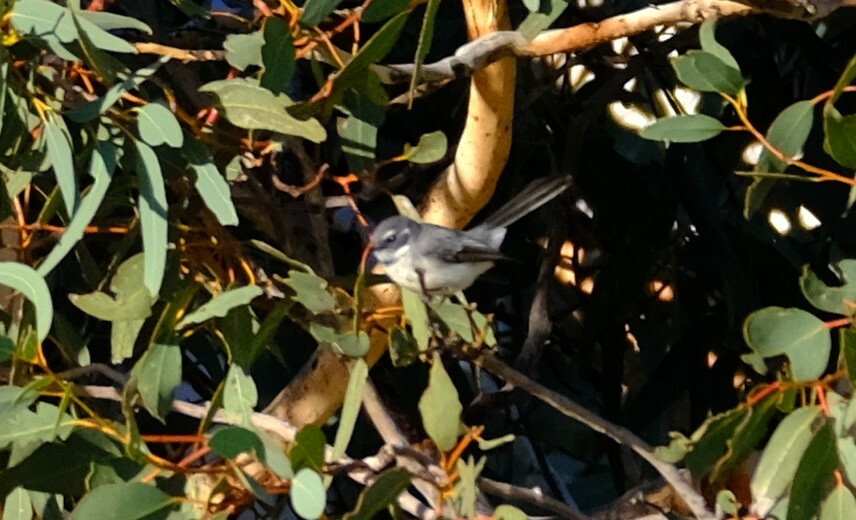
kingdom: Animalia
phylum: Chordata
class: Aves
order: Passeriformes
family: Rhipiduridae
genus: Rhipidura
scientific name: Rhipidura albiscapa
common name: Grey fantail
